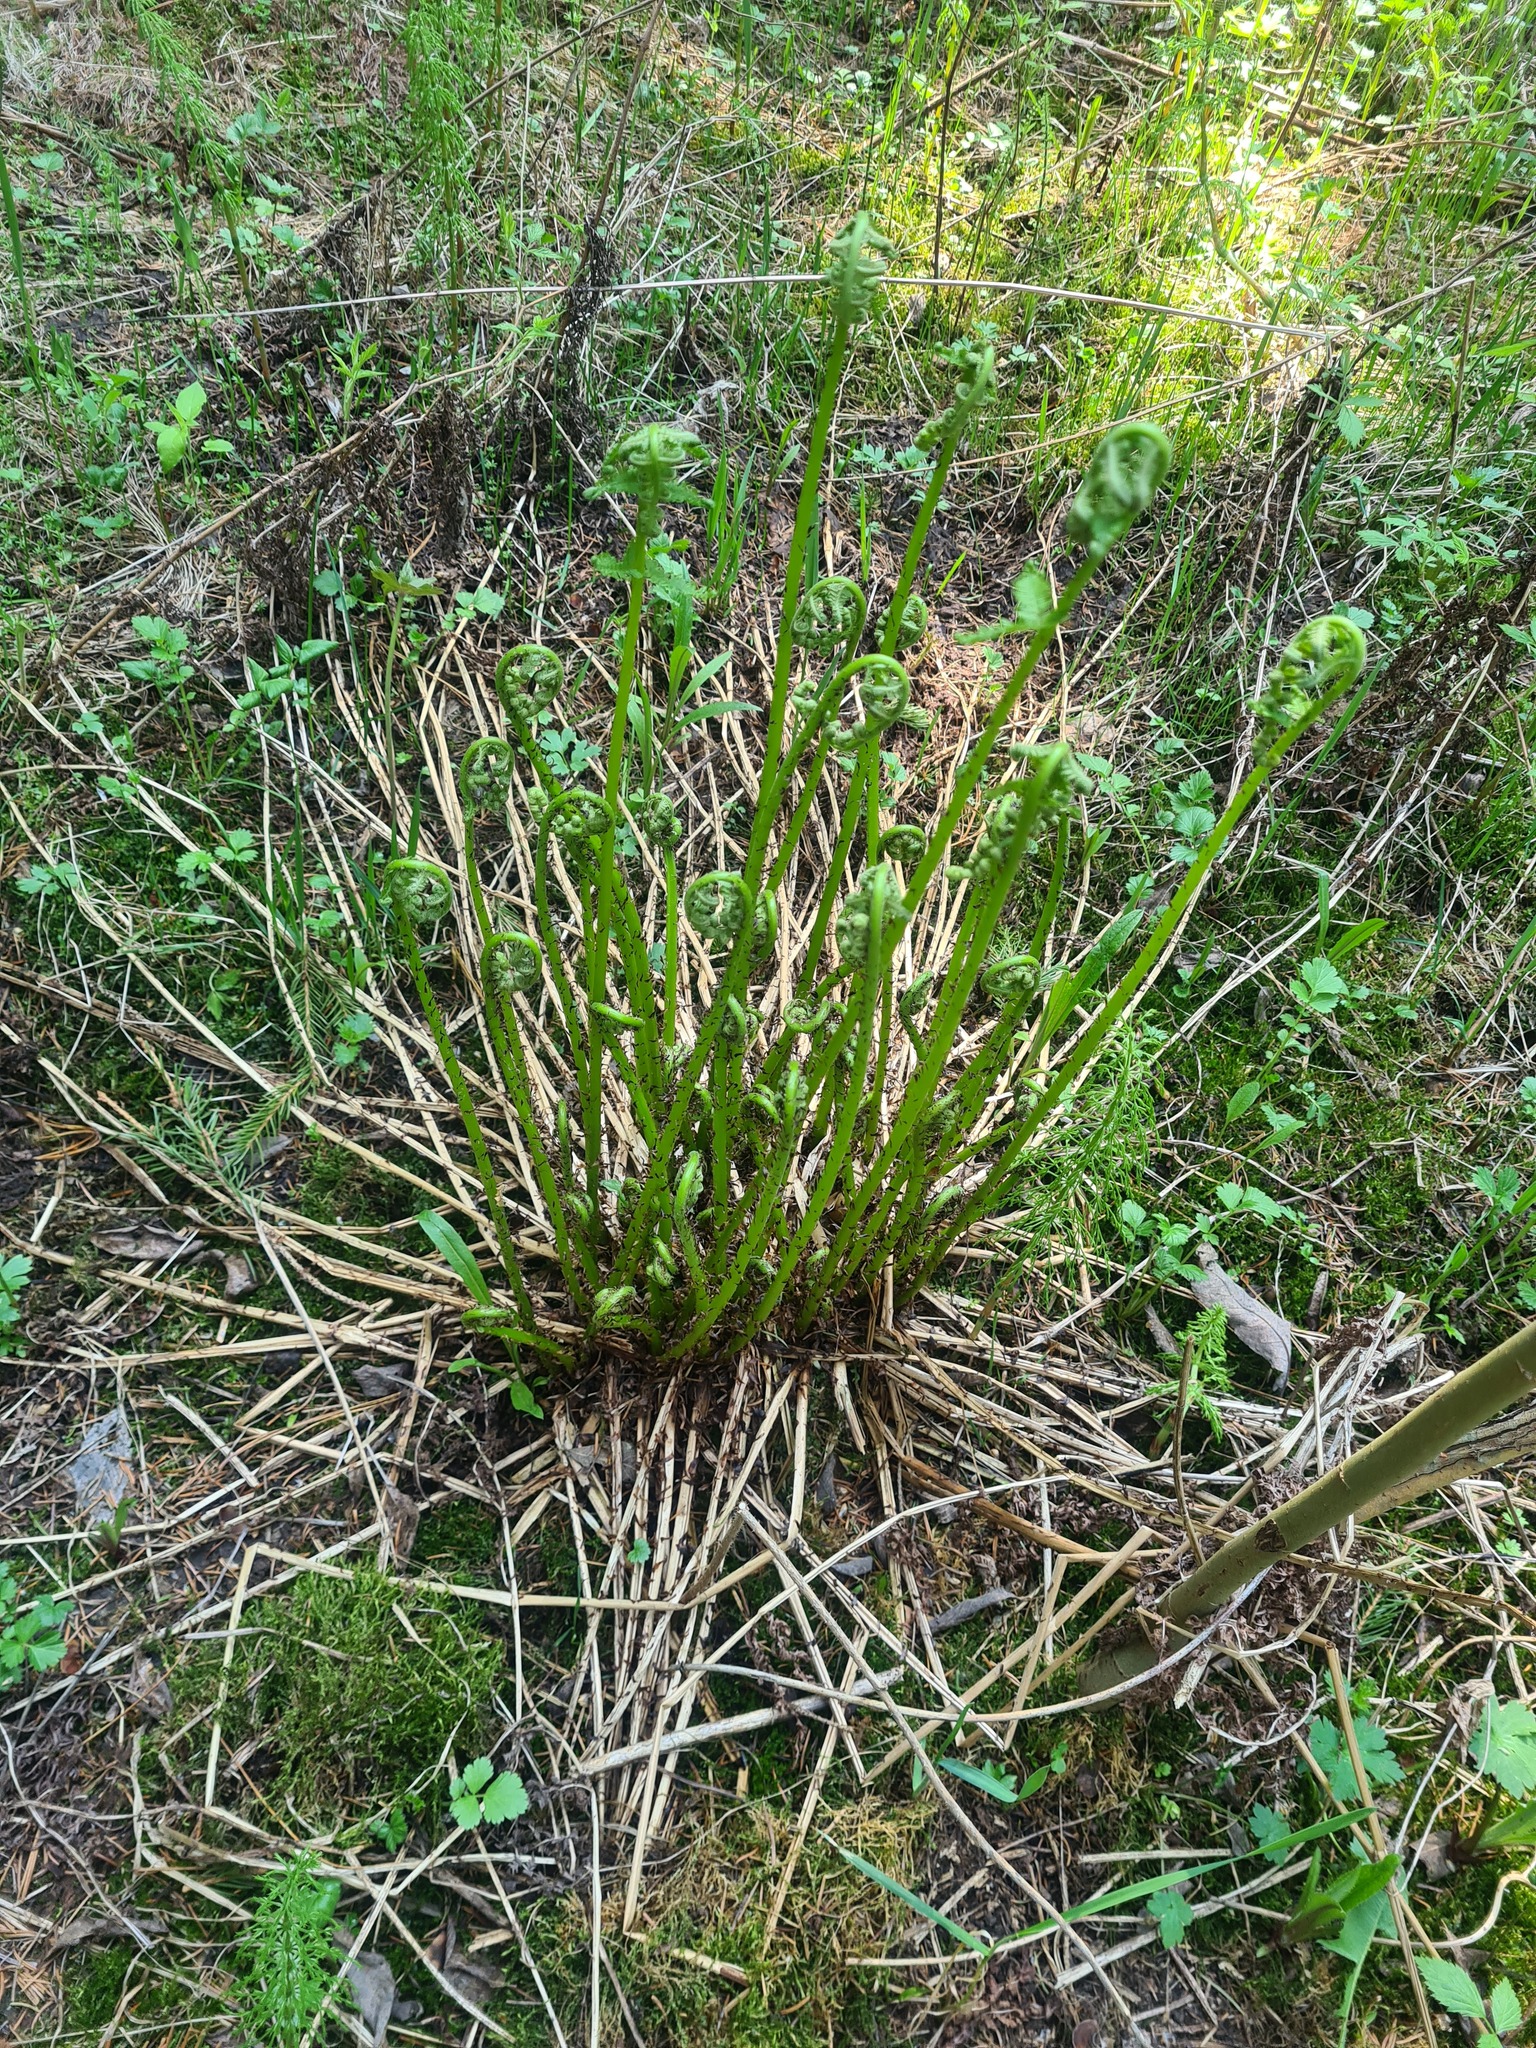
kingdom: Plantae
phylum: Tracheophyta
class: Polypodiopsida
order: Polypodiales
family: Athyriaceae
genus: Athyrium
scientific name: Athyrium filix-femina
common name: Lady fern
